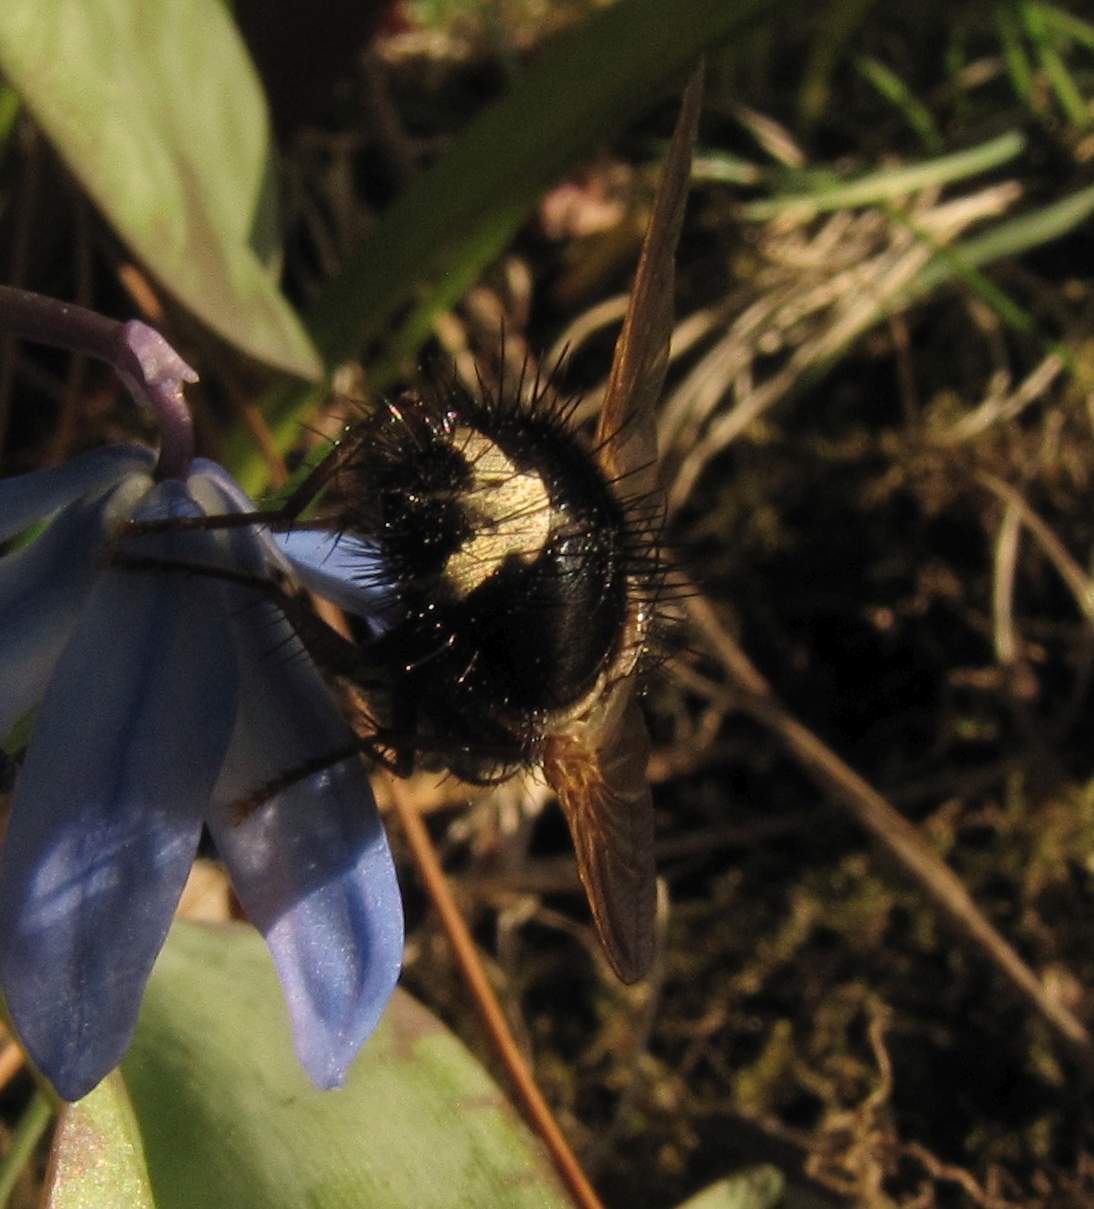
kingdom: Animalia
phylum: Arthropoda
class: Insecta
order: Diptera
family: Tachinidae
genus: Epalpus
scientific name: Epalpus signifer
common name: Early tachinid fly
